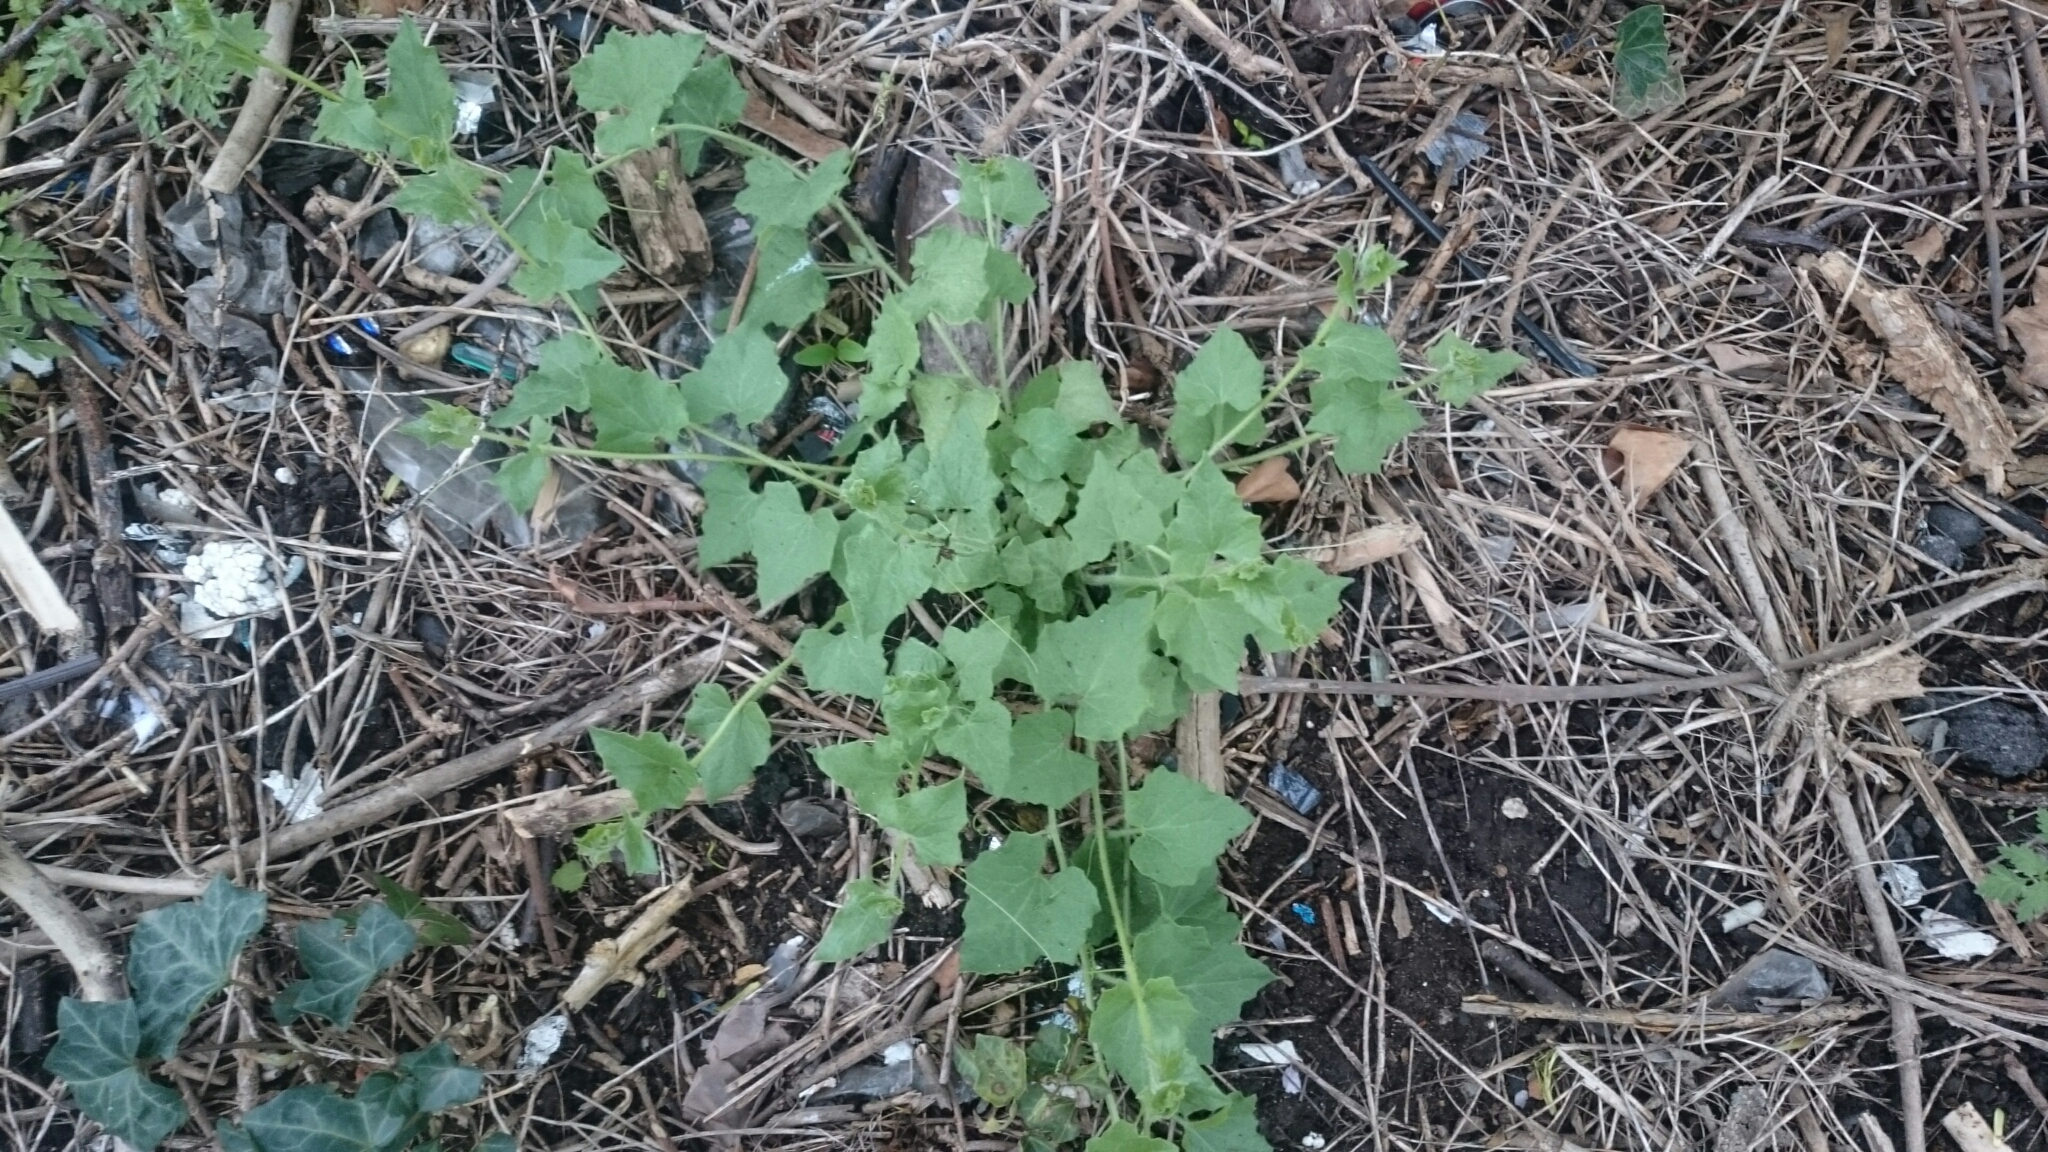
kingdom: Plantae
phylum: Tracheophyta
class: Magnoliopsida
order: Cucurbitales
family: Cucurbitaceae
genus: Bryonia
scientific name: Bryonia cretica
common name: Cretan bryony
